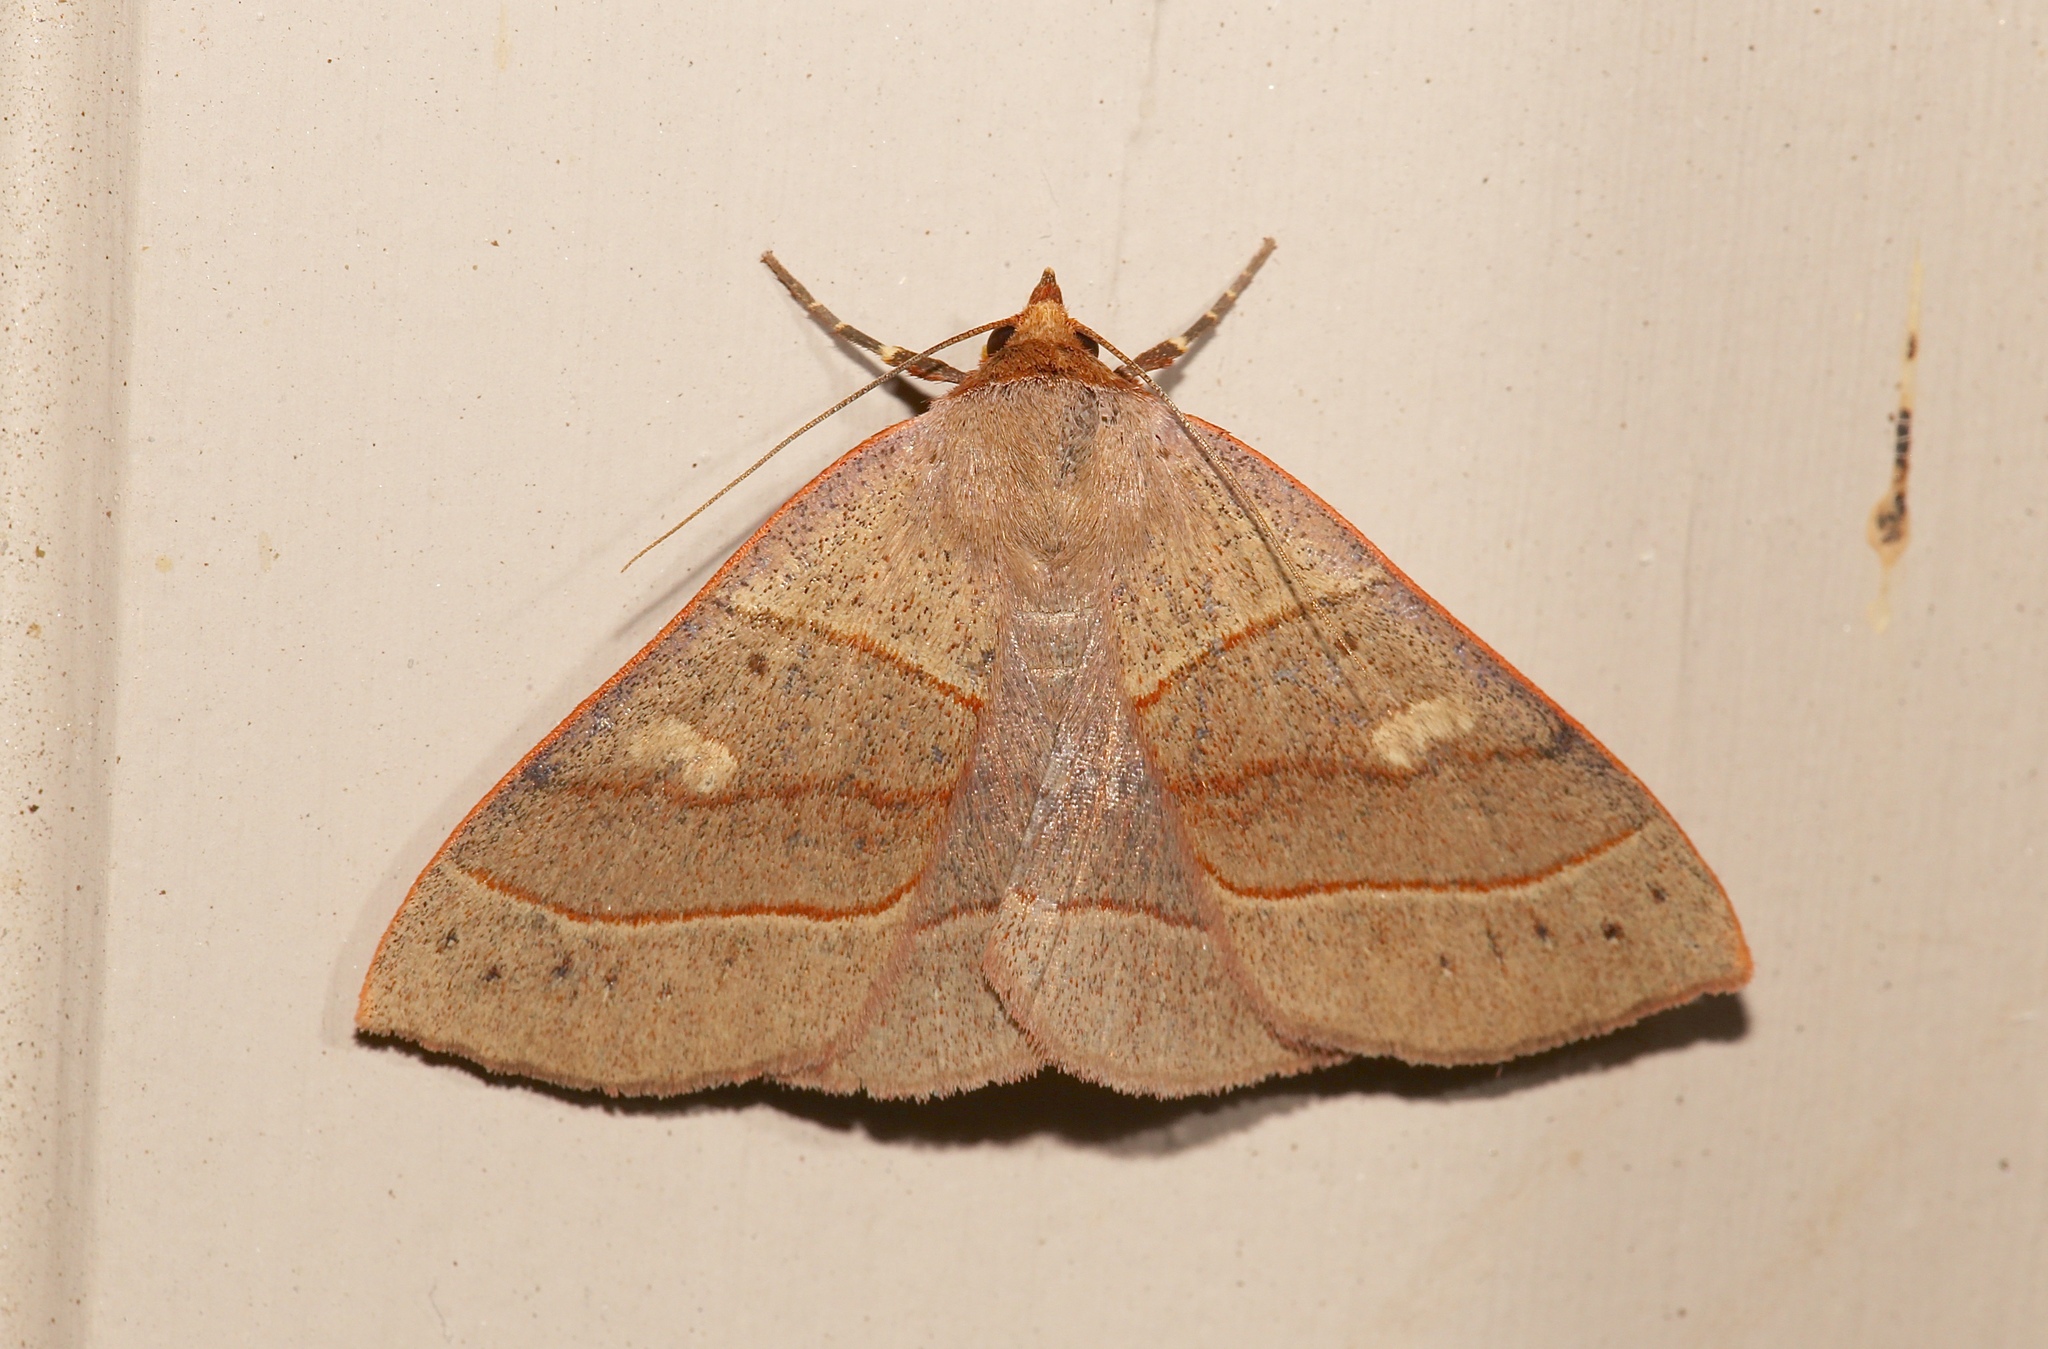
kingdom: Animalia
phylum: Arthropoda
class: Insecta
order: Lepidoptera
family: Erebidae
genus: Panopoda
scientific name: Panopoda rufimargo
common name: Red-lined panopoda moth
